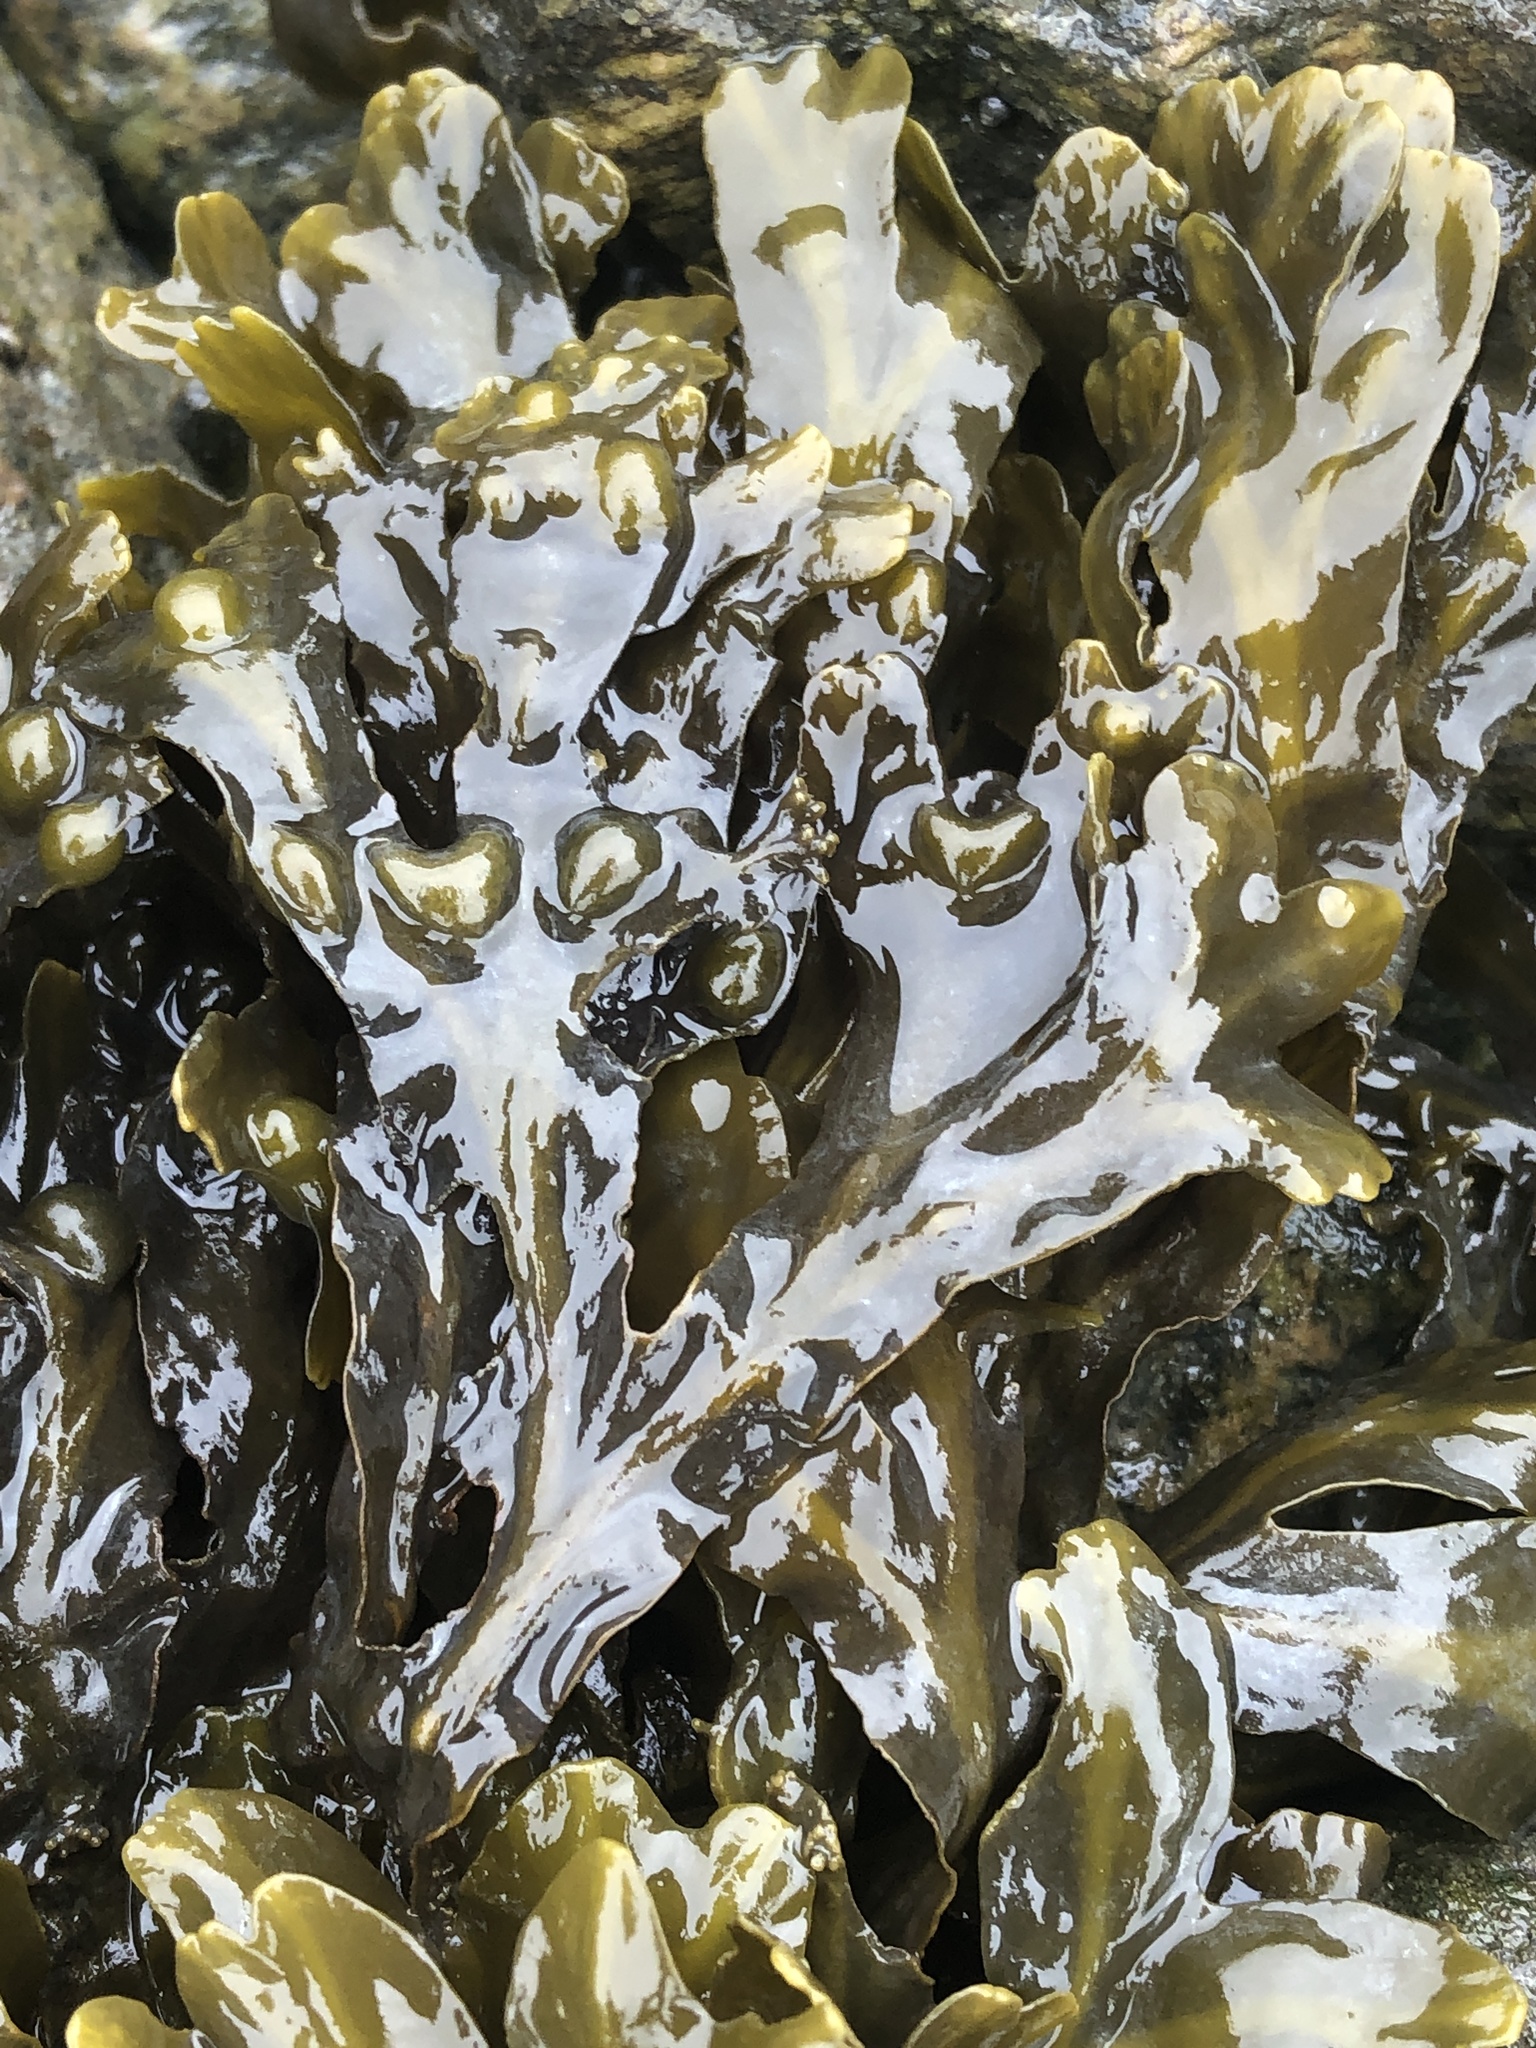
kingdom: Chromista
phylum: Ochrophyta
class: Phaeophyceae
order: Fucales
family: Fucaceae
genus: Fucus
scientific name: Fucus vesiculosus
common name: Bladder wrack
